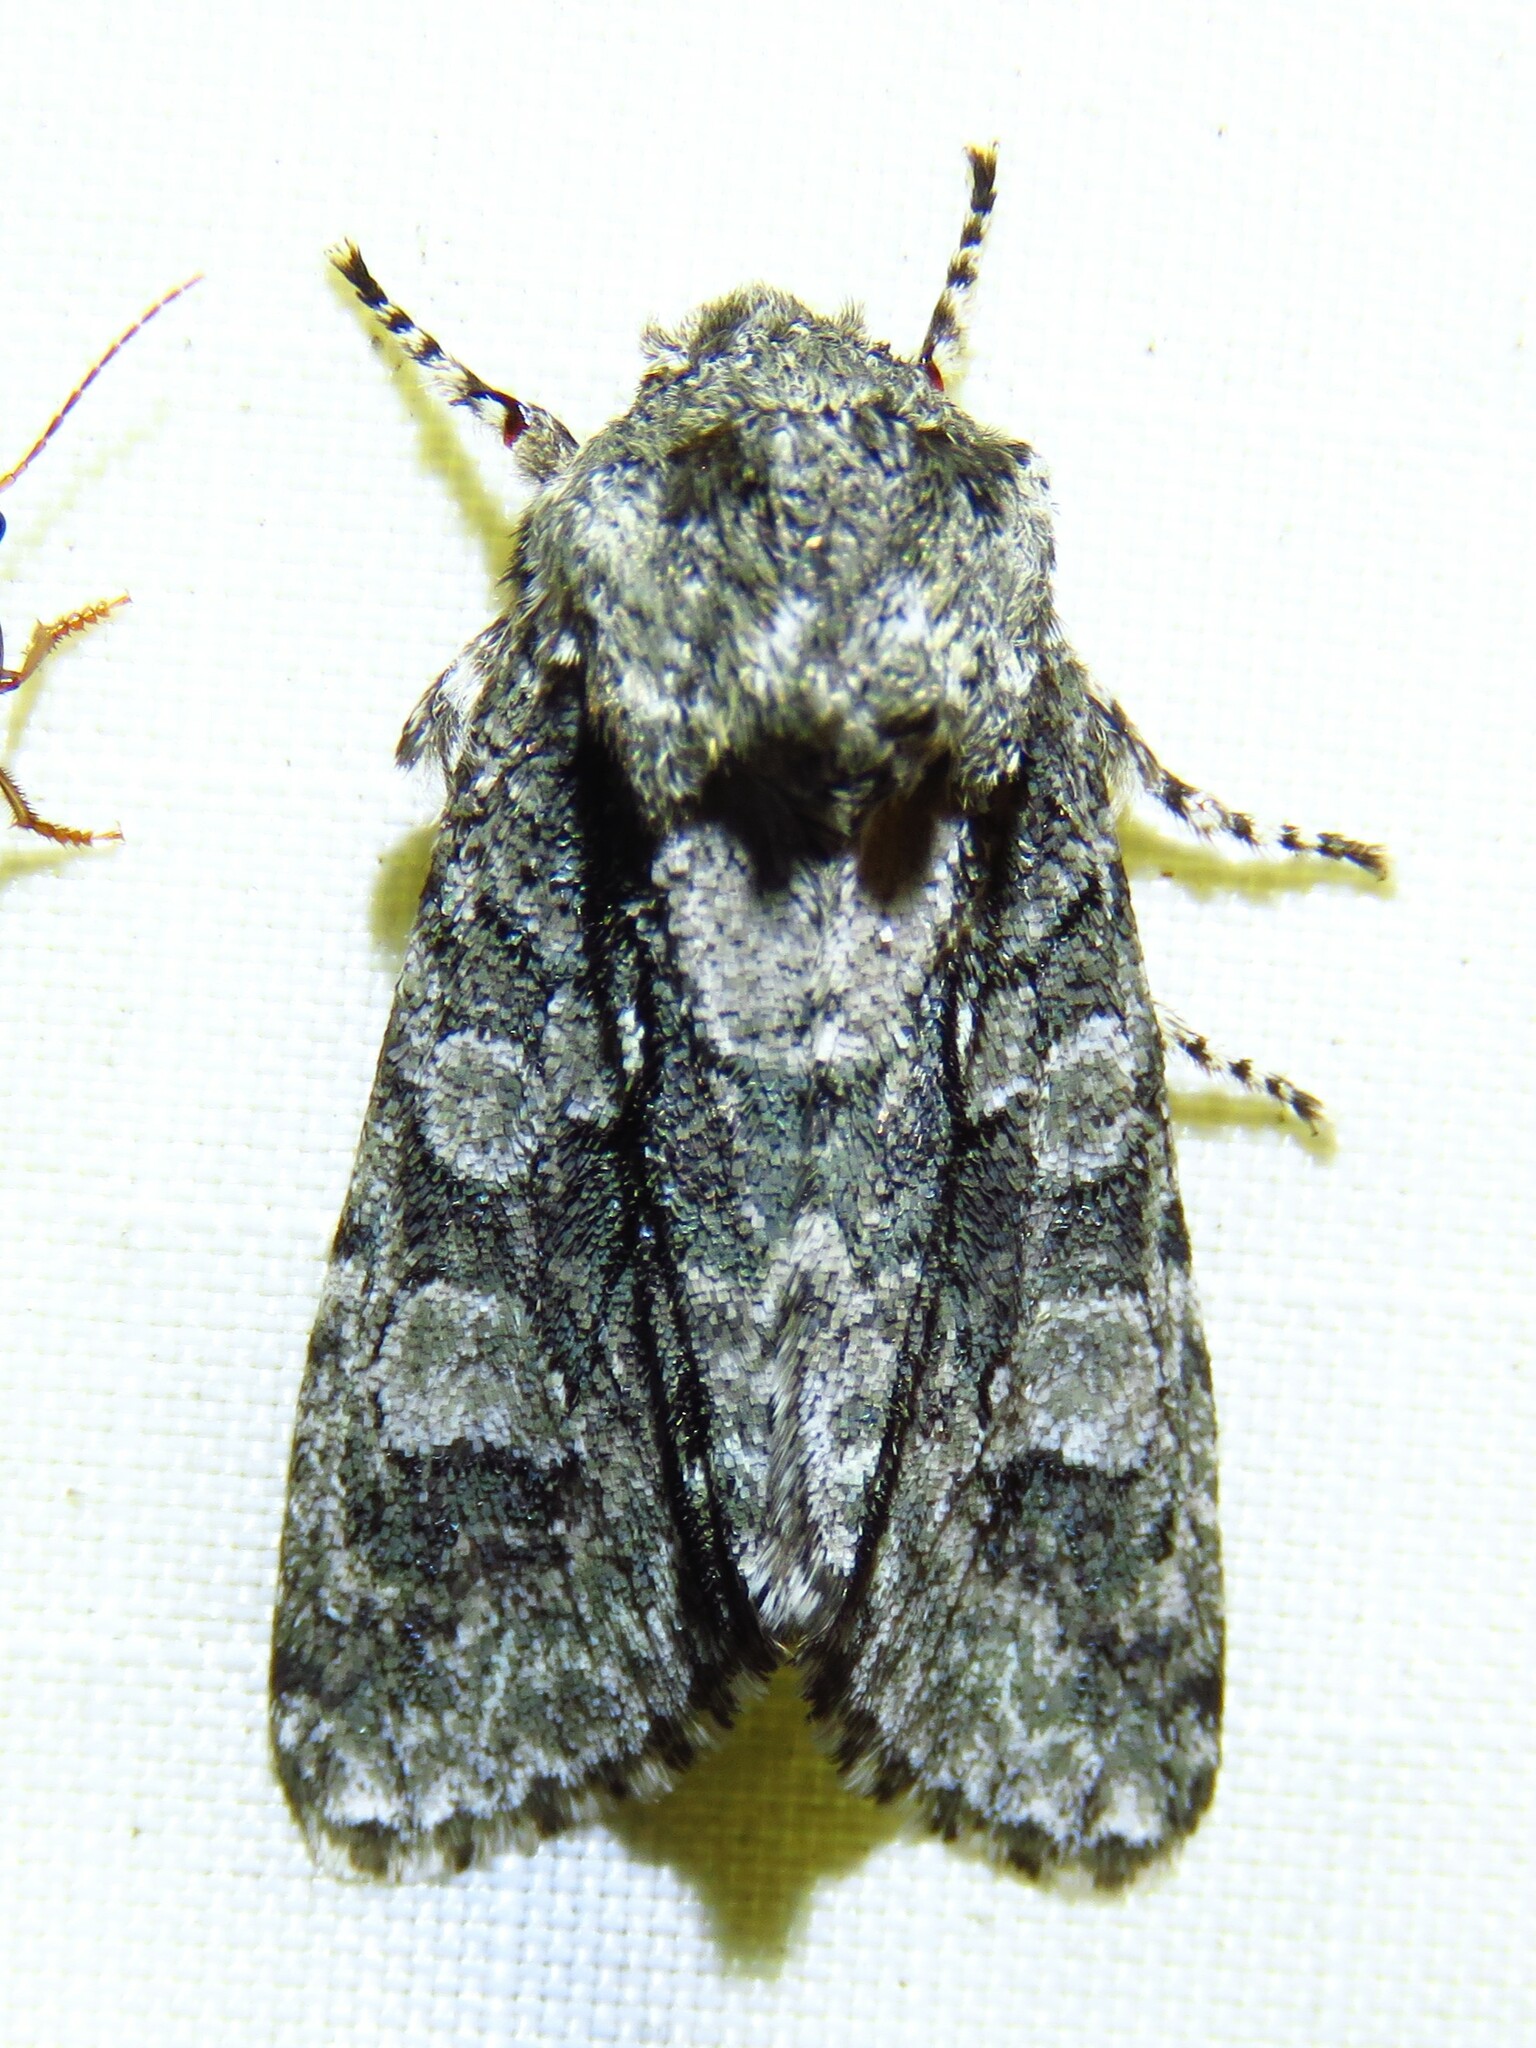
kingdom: Animalia
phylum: Arthropoda
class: Insecta
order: Lepidoptera
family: Noctuidae
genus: Psaphida
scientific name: Psaphida resumens
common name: Figure-eight sallow
